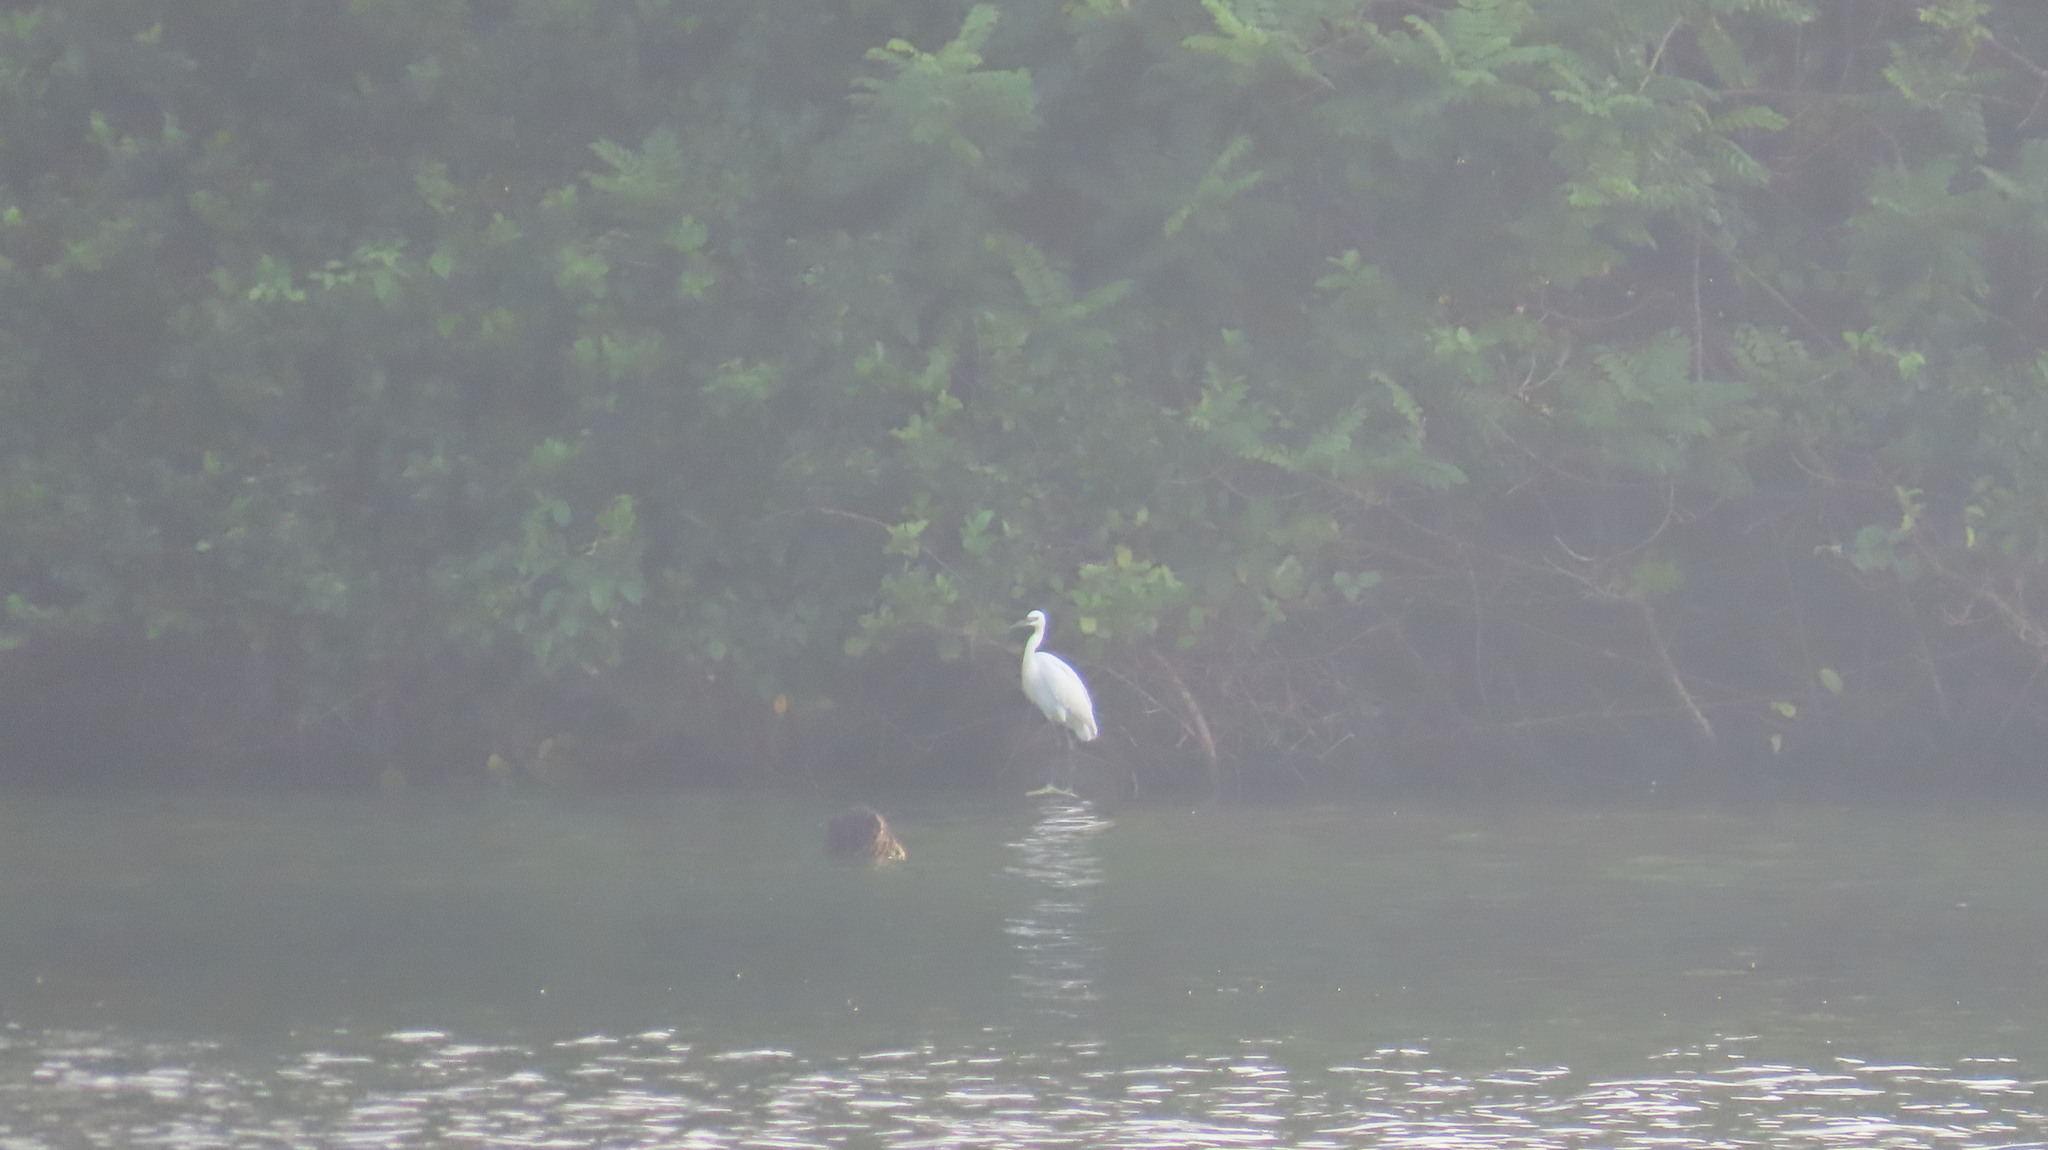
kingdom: Animalia
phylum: Chordata
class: Aves
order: Pelecaniformes
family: Ardeidae
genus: Egretta
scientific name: Egretta garzetta
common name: Little egret
